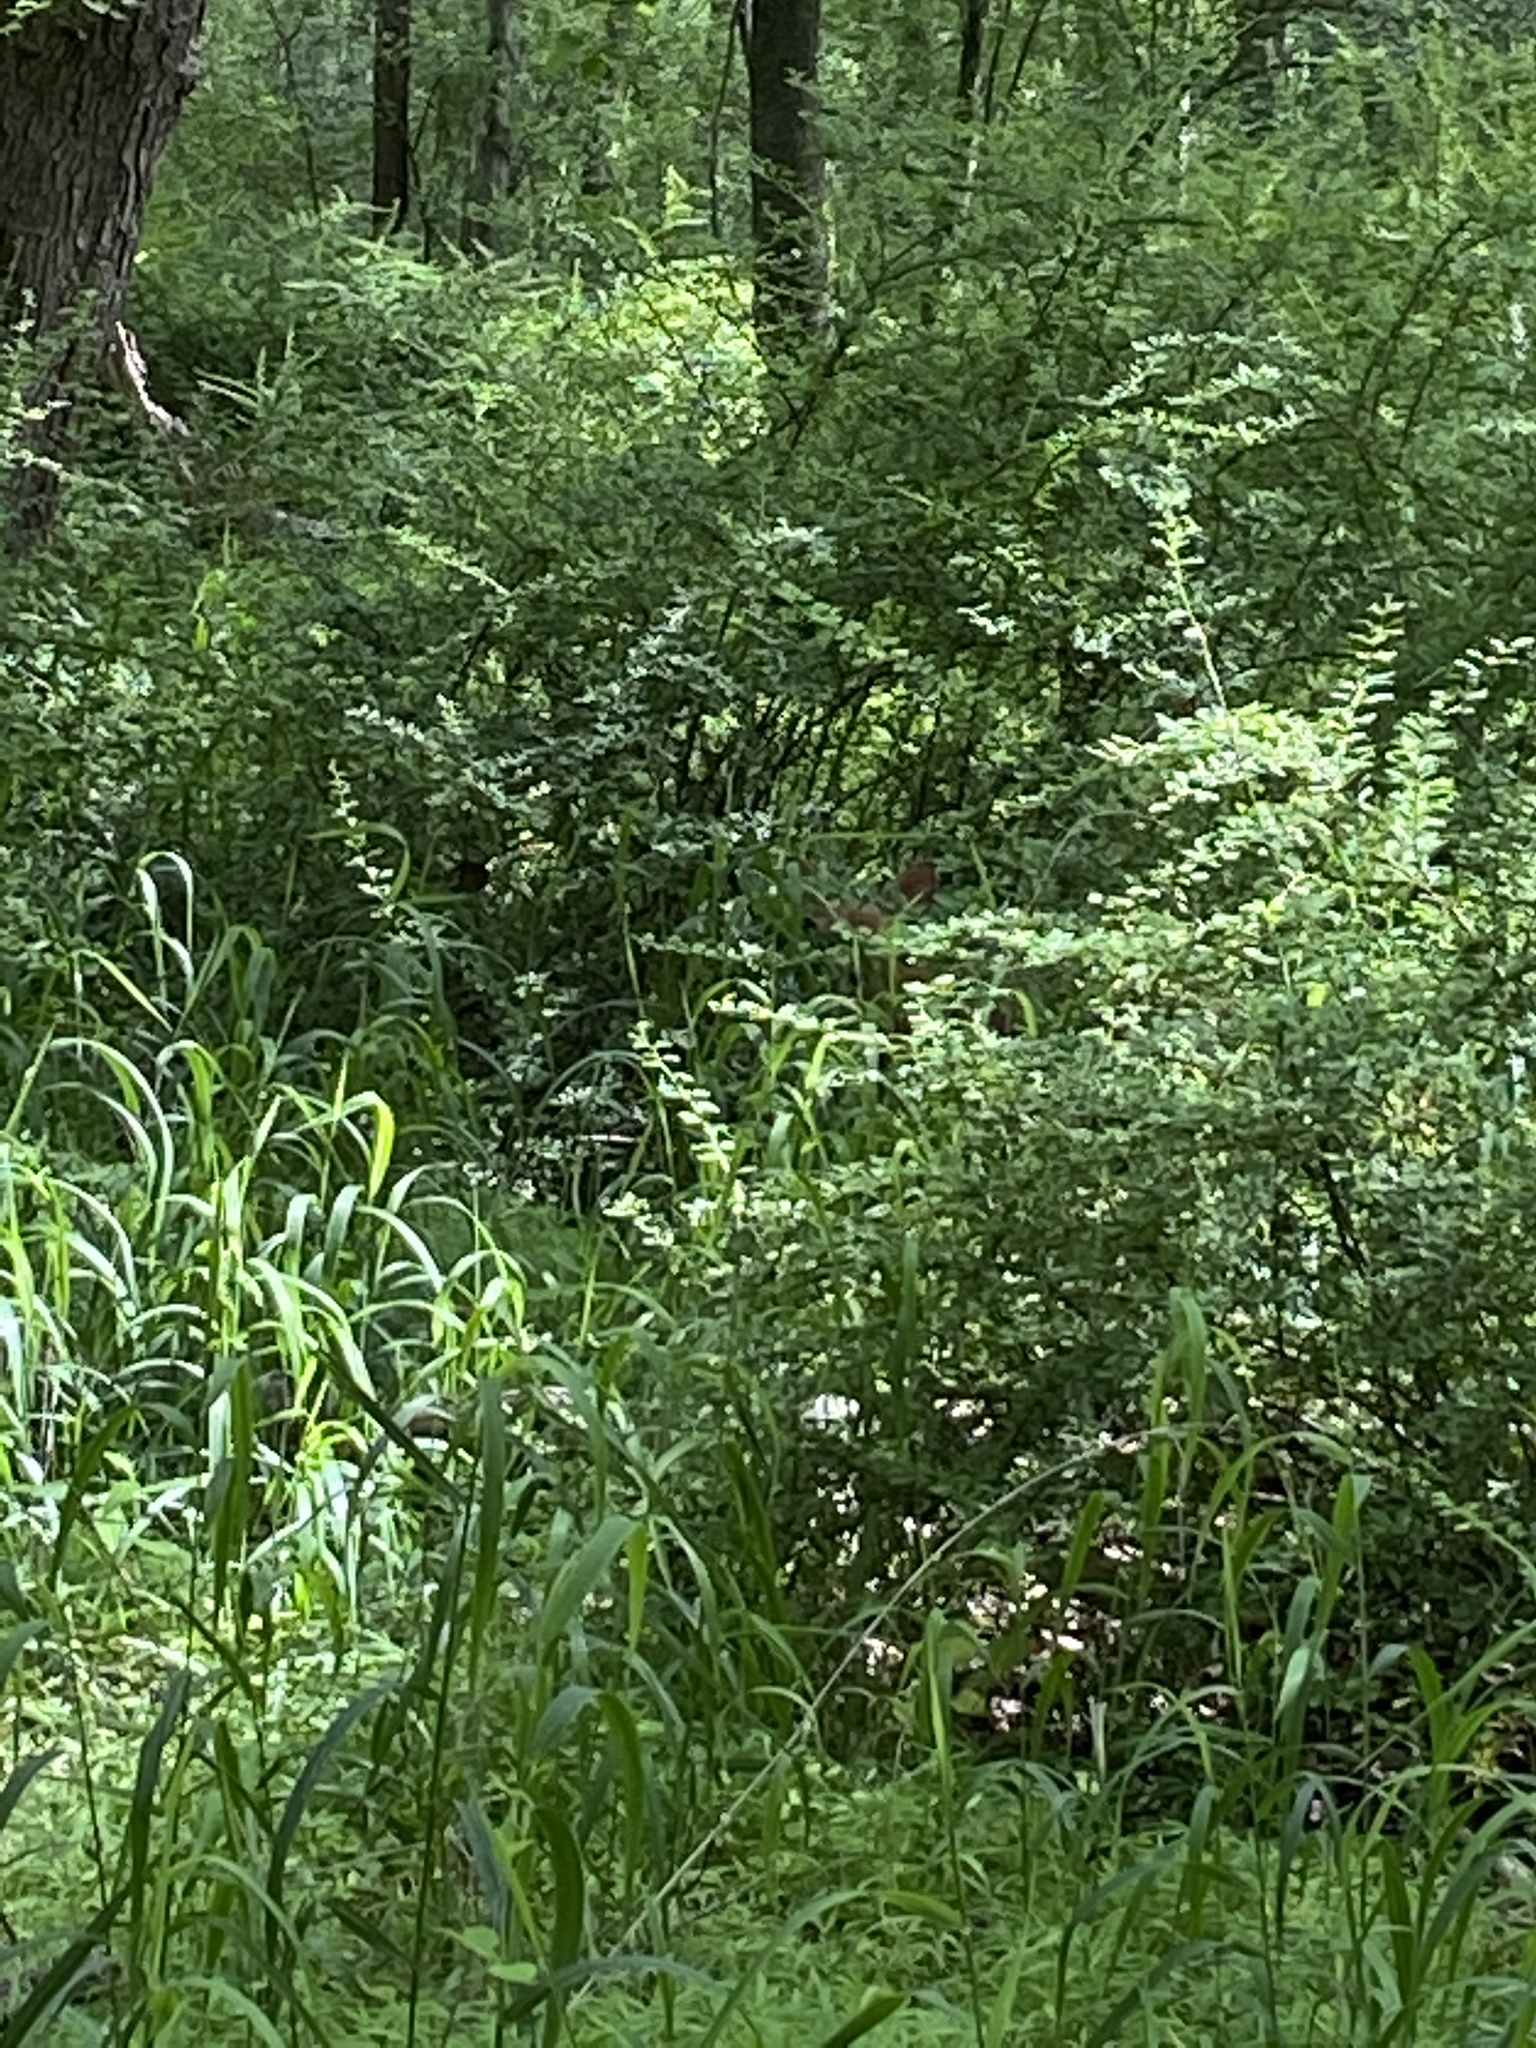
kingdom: Animalia
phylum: Chordata
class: Mammalia
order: Artiodactyla
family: Cervidae
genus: Odocoileus
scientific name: Odocoileus virginianus
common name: White-tailed deer
